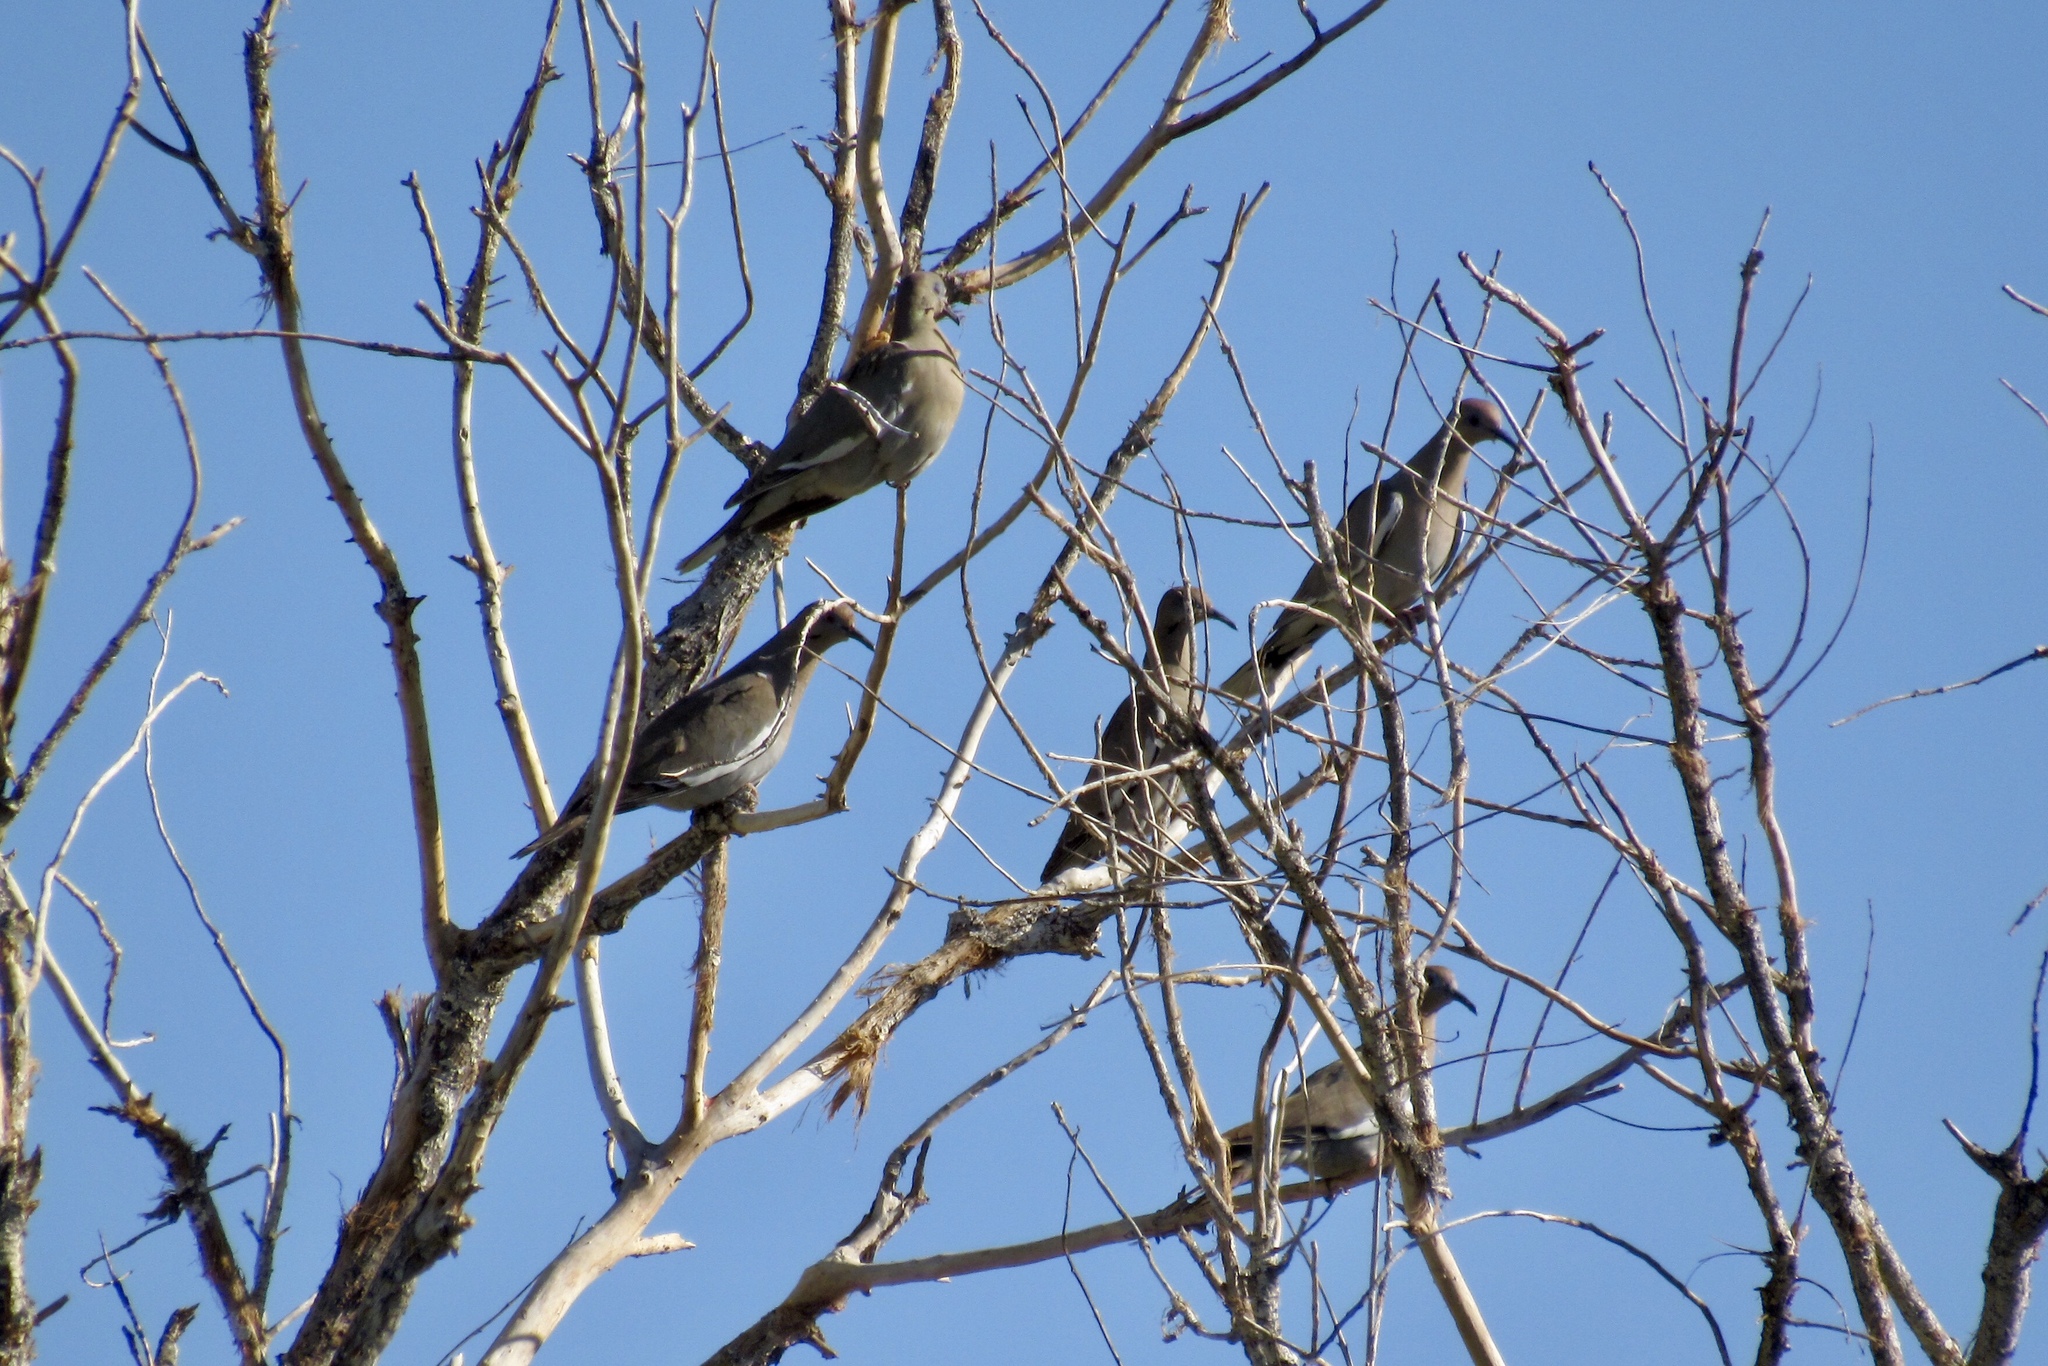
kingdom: Animalia
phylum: Chordata
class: Aves
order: Columbiformes
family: Columbidae
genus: Zenaida
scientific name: Zenaida asiatica
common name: White-winged dove
